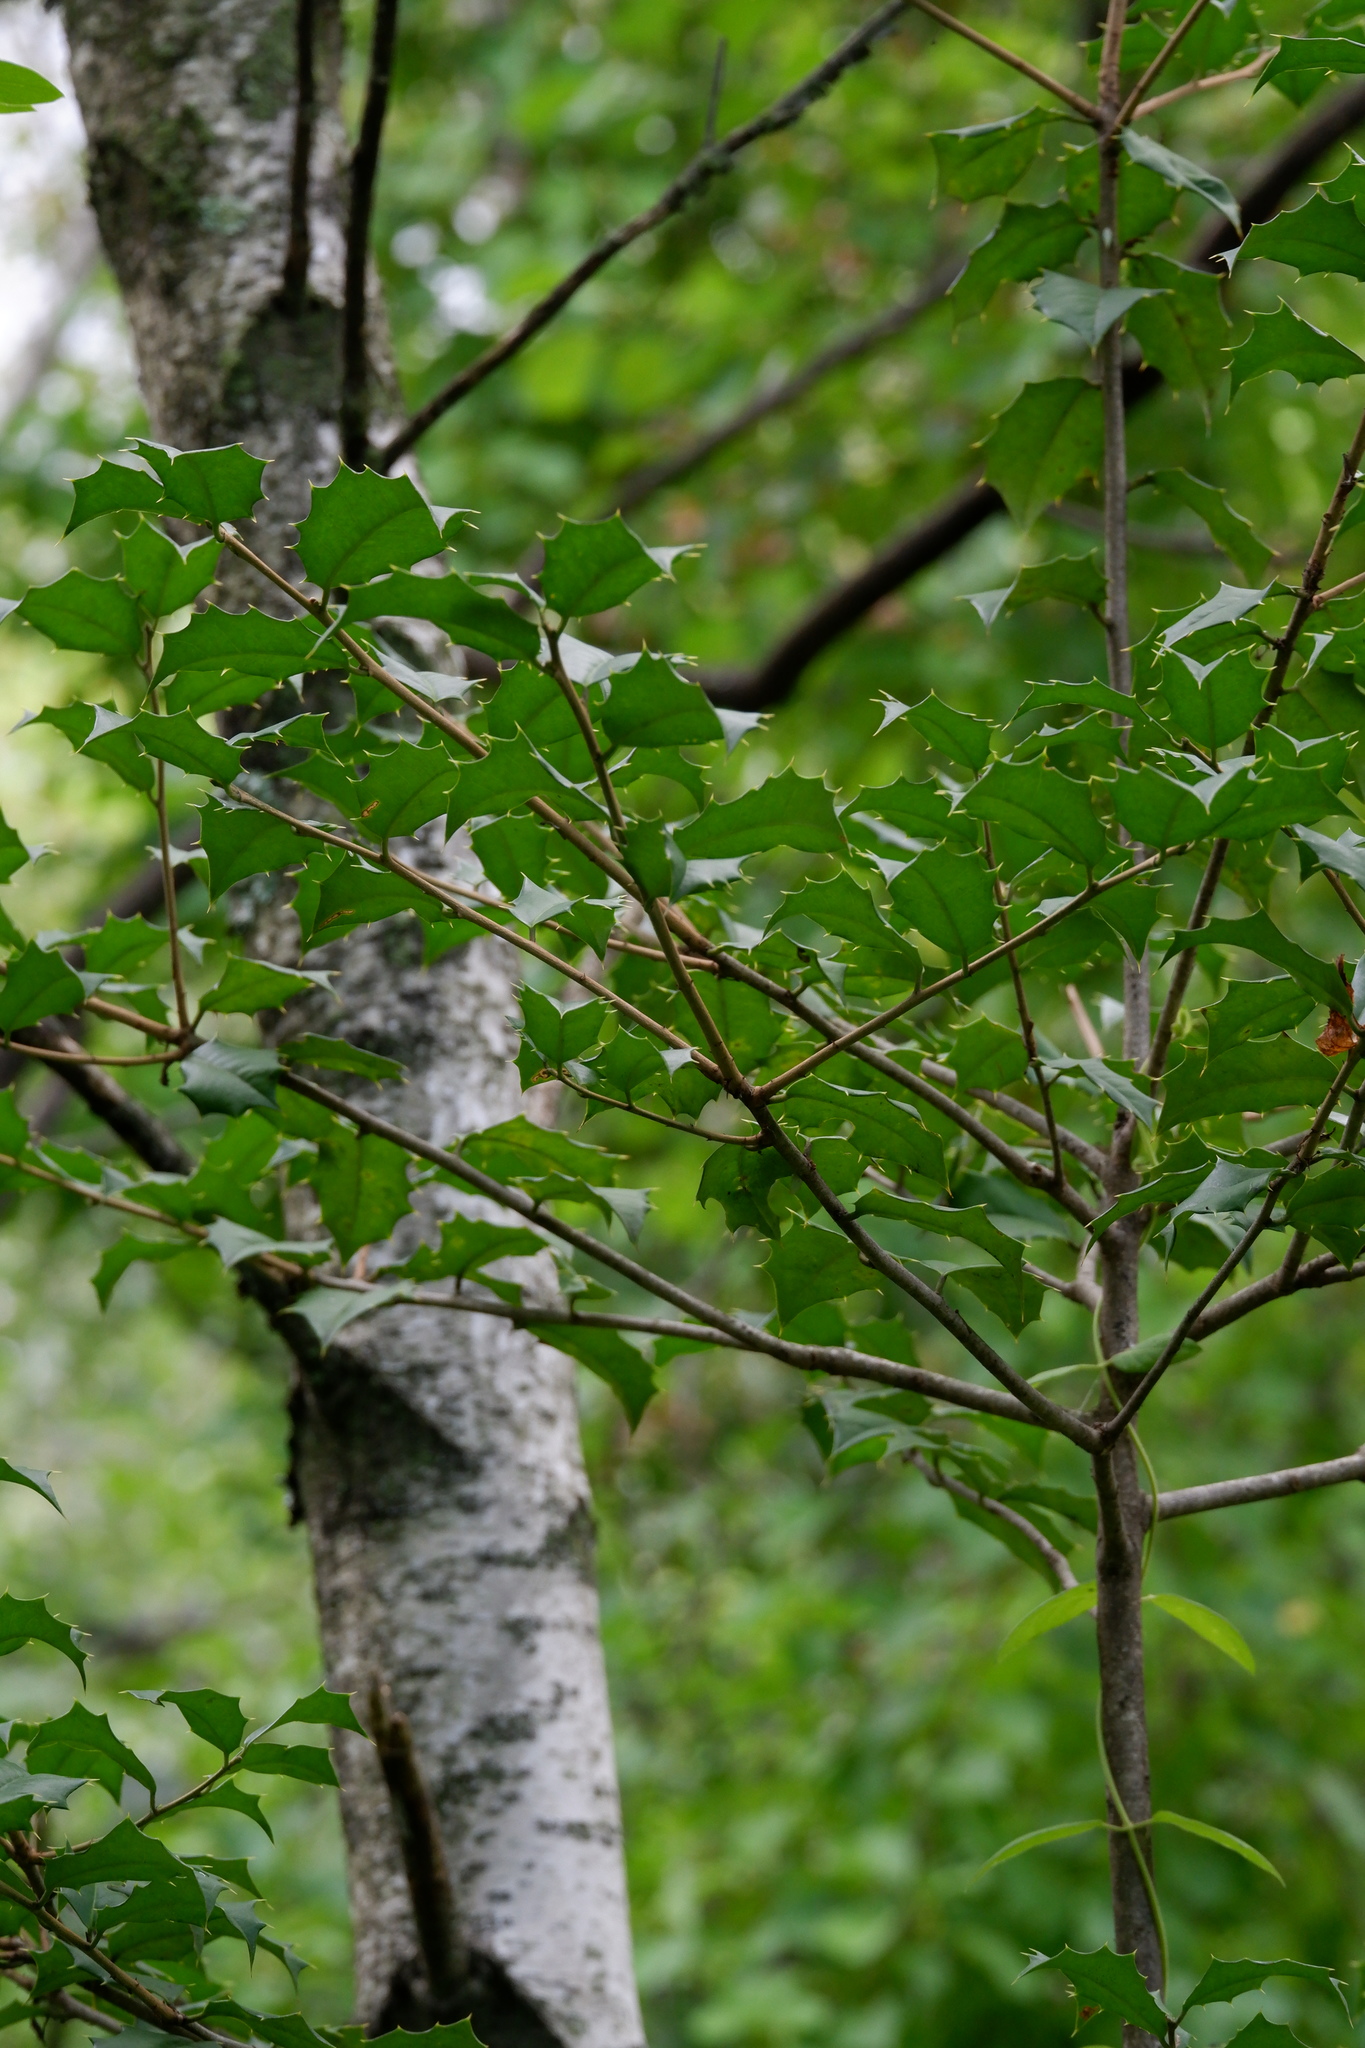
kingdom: Plantae
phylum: Tracheophyta
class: Magnoliopsida
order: Aquifoliales
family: Aquifoliaceae
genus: Ilex
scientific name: Ilex opaca
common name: American holly
